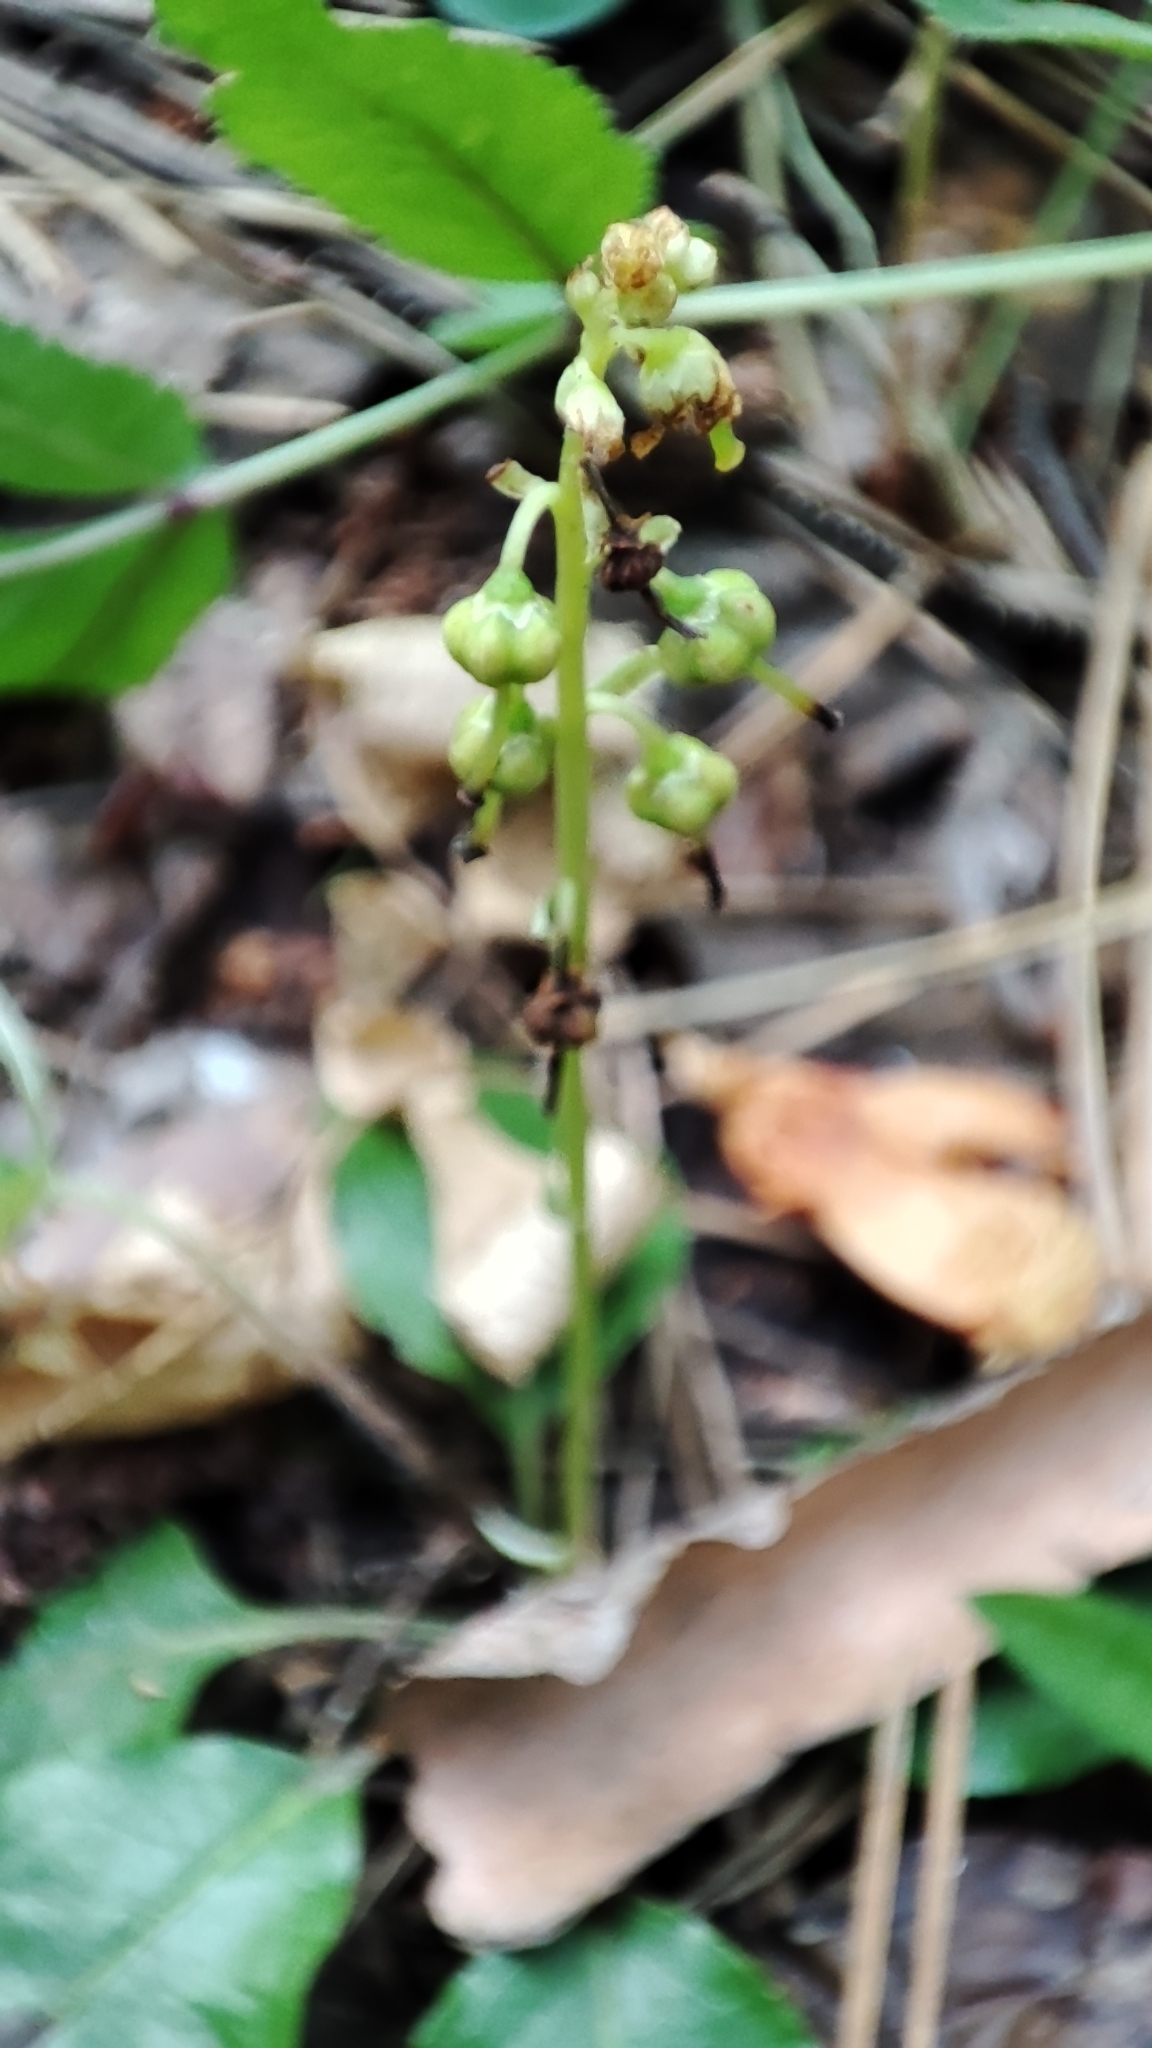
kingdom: Plantae
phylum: Tracheophyta
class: Magnoliopsida
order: Ericales
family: Ericaceae
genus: Orthilia
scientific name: Orthilia secunda
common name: One-sided orthilia
